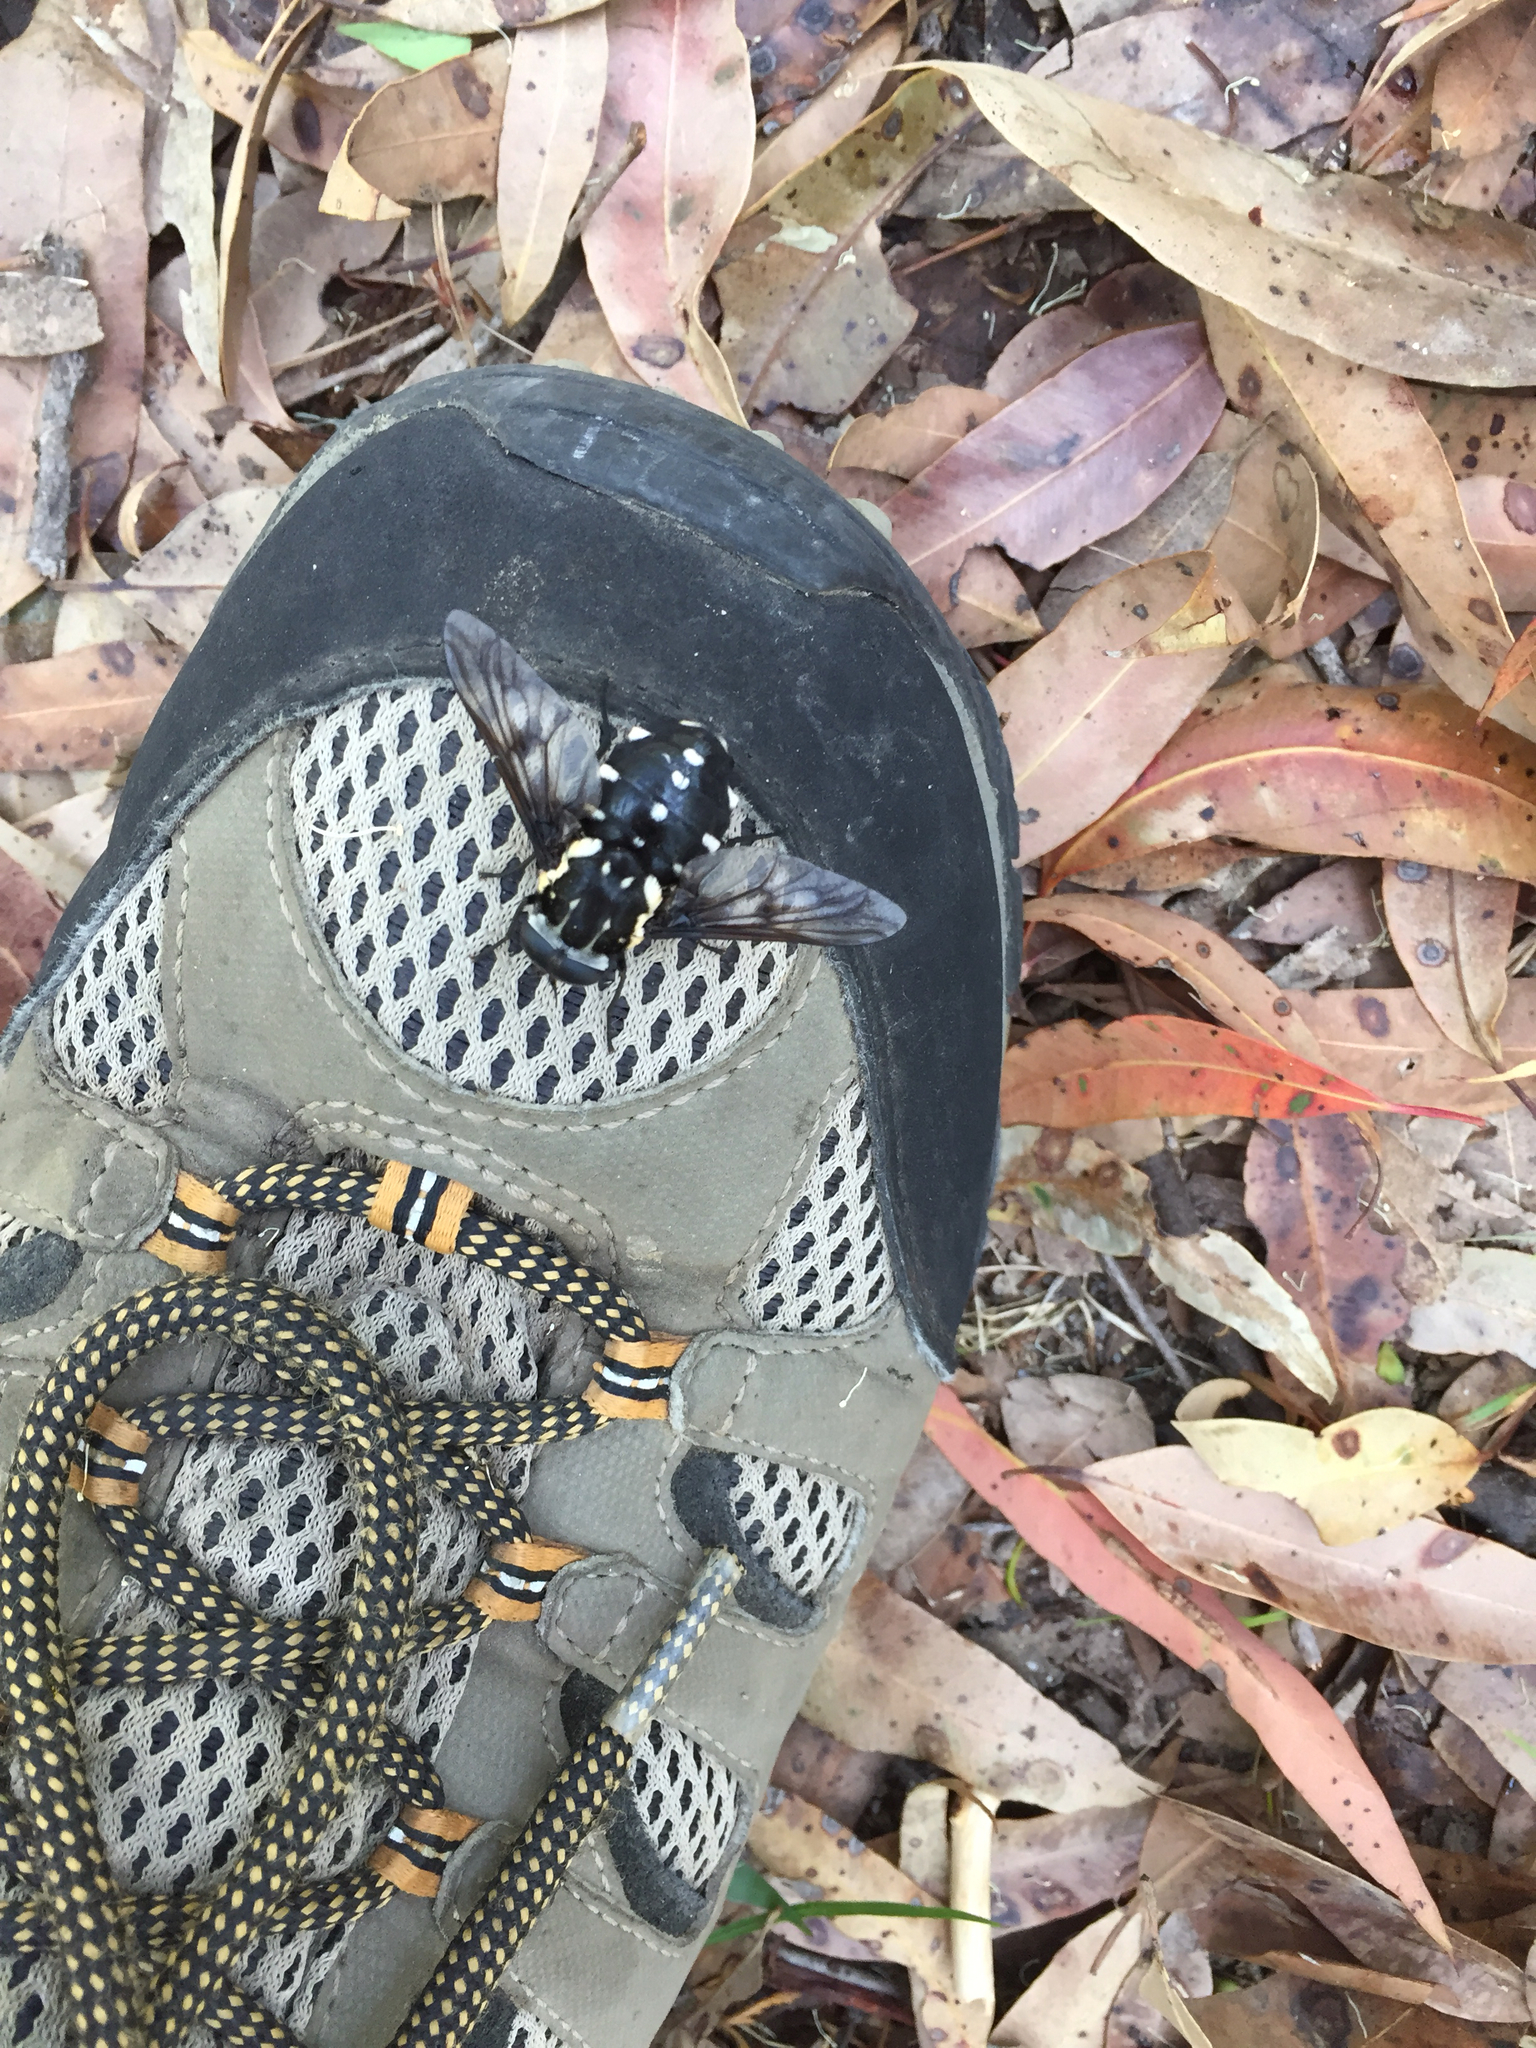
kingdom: Animalia
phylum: Arthropoda
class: Insecta
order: Diptera
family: Tabanidae
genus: Triclista
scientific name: Triclista guttata
